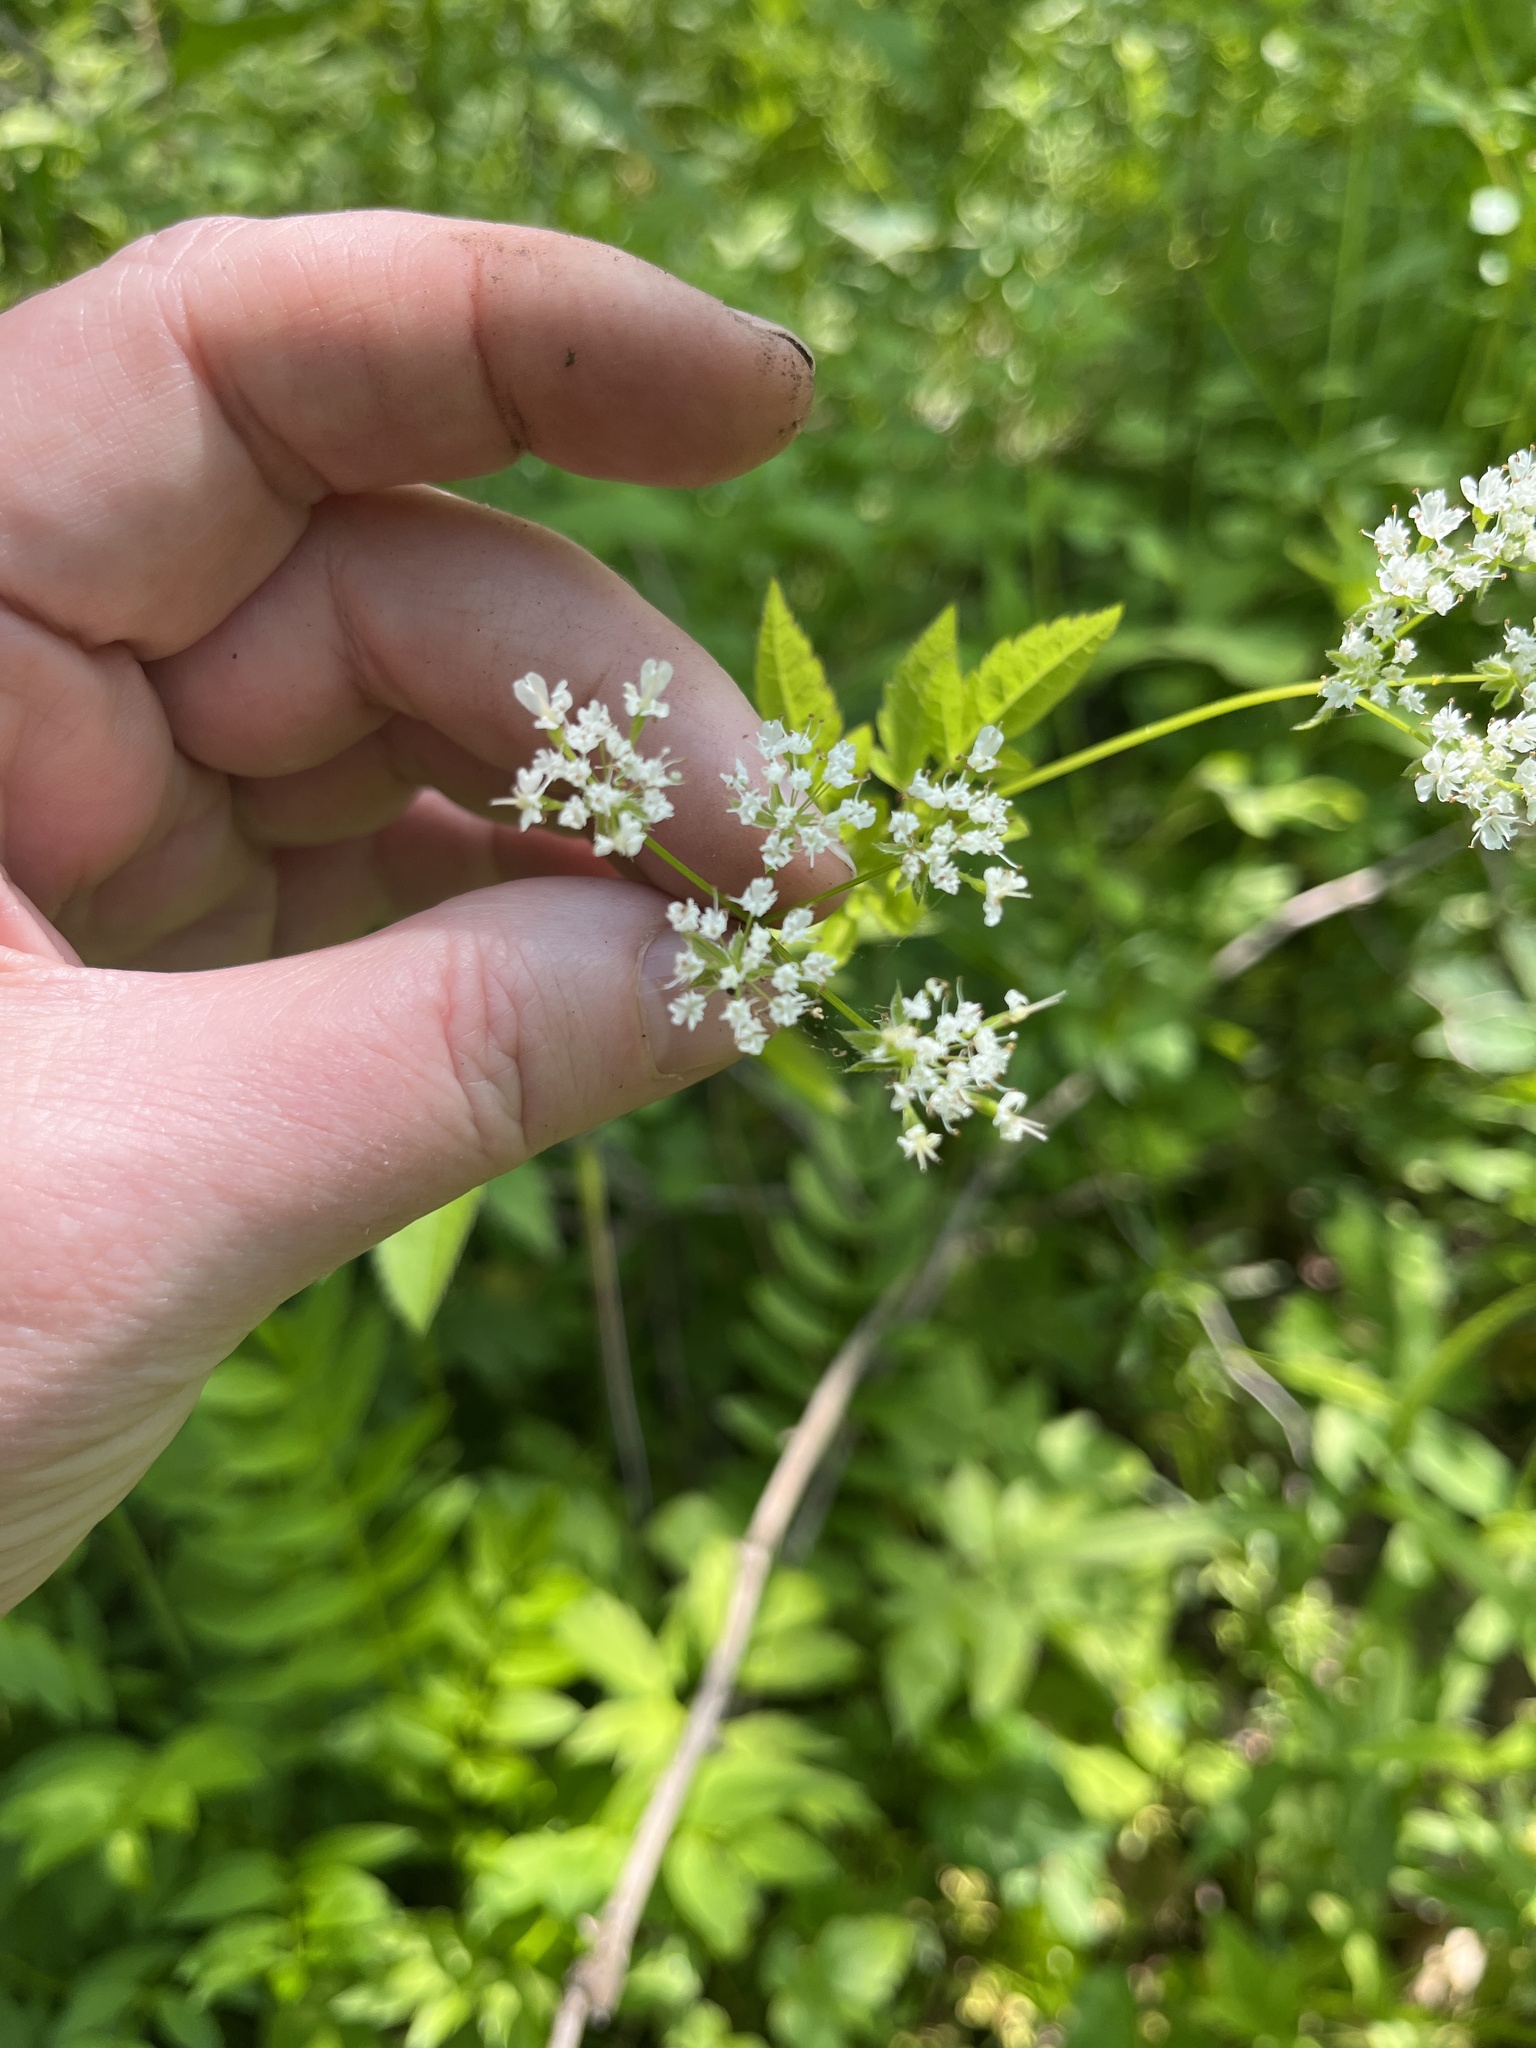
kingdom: Plantae
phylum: Tracheophyta
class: Magnoliopsida
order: Apiales
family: Apiaceae
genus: Osmorhiza
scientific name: Osmorhiza longistylis
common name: Smooth sweet cicely
